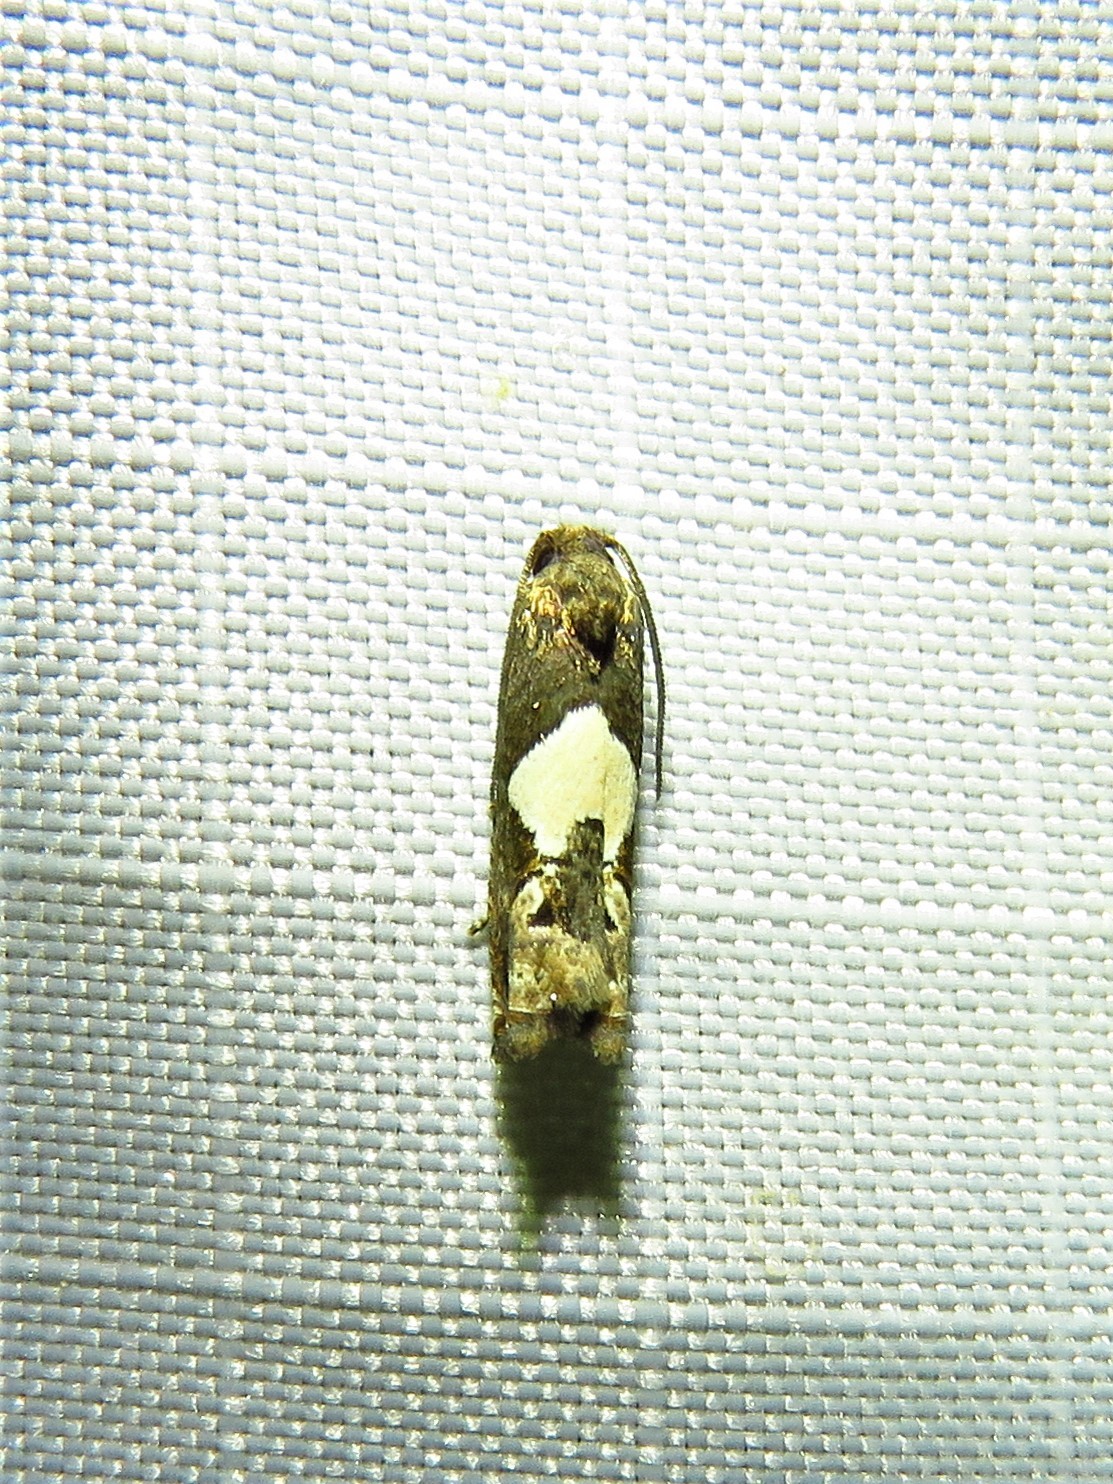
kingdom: Animalia
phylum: Arthropoda
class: Insecta
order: Lepidoptera
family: Tortricidae
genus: Epiblema
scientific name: Epiblema otiosana
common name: Bidens borer moth
